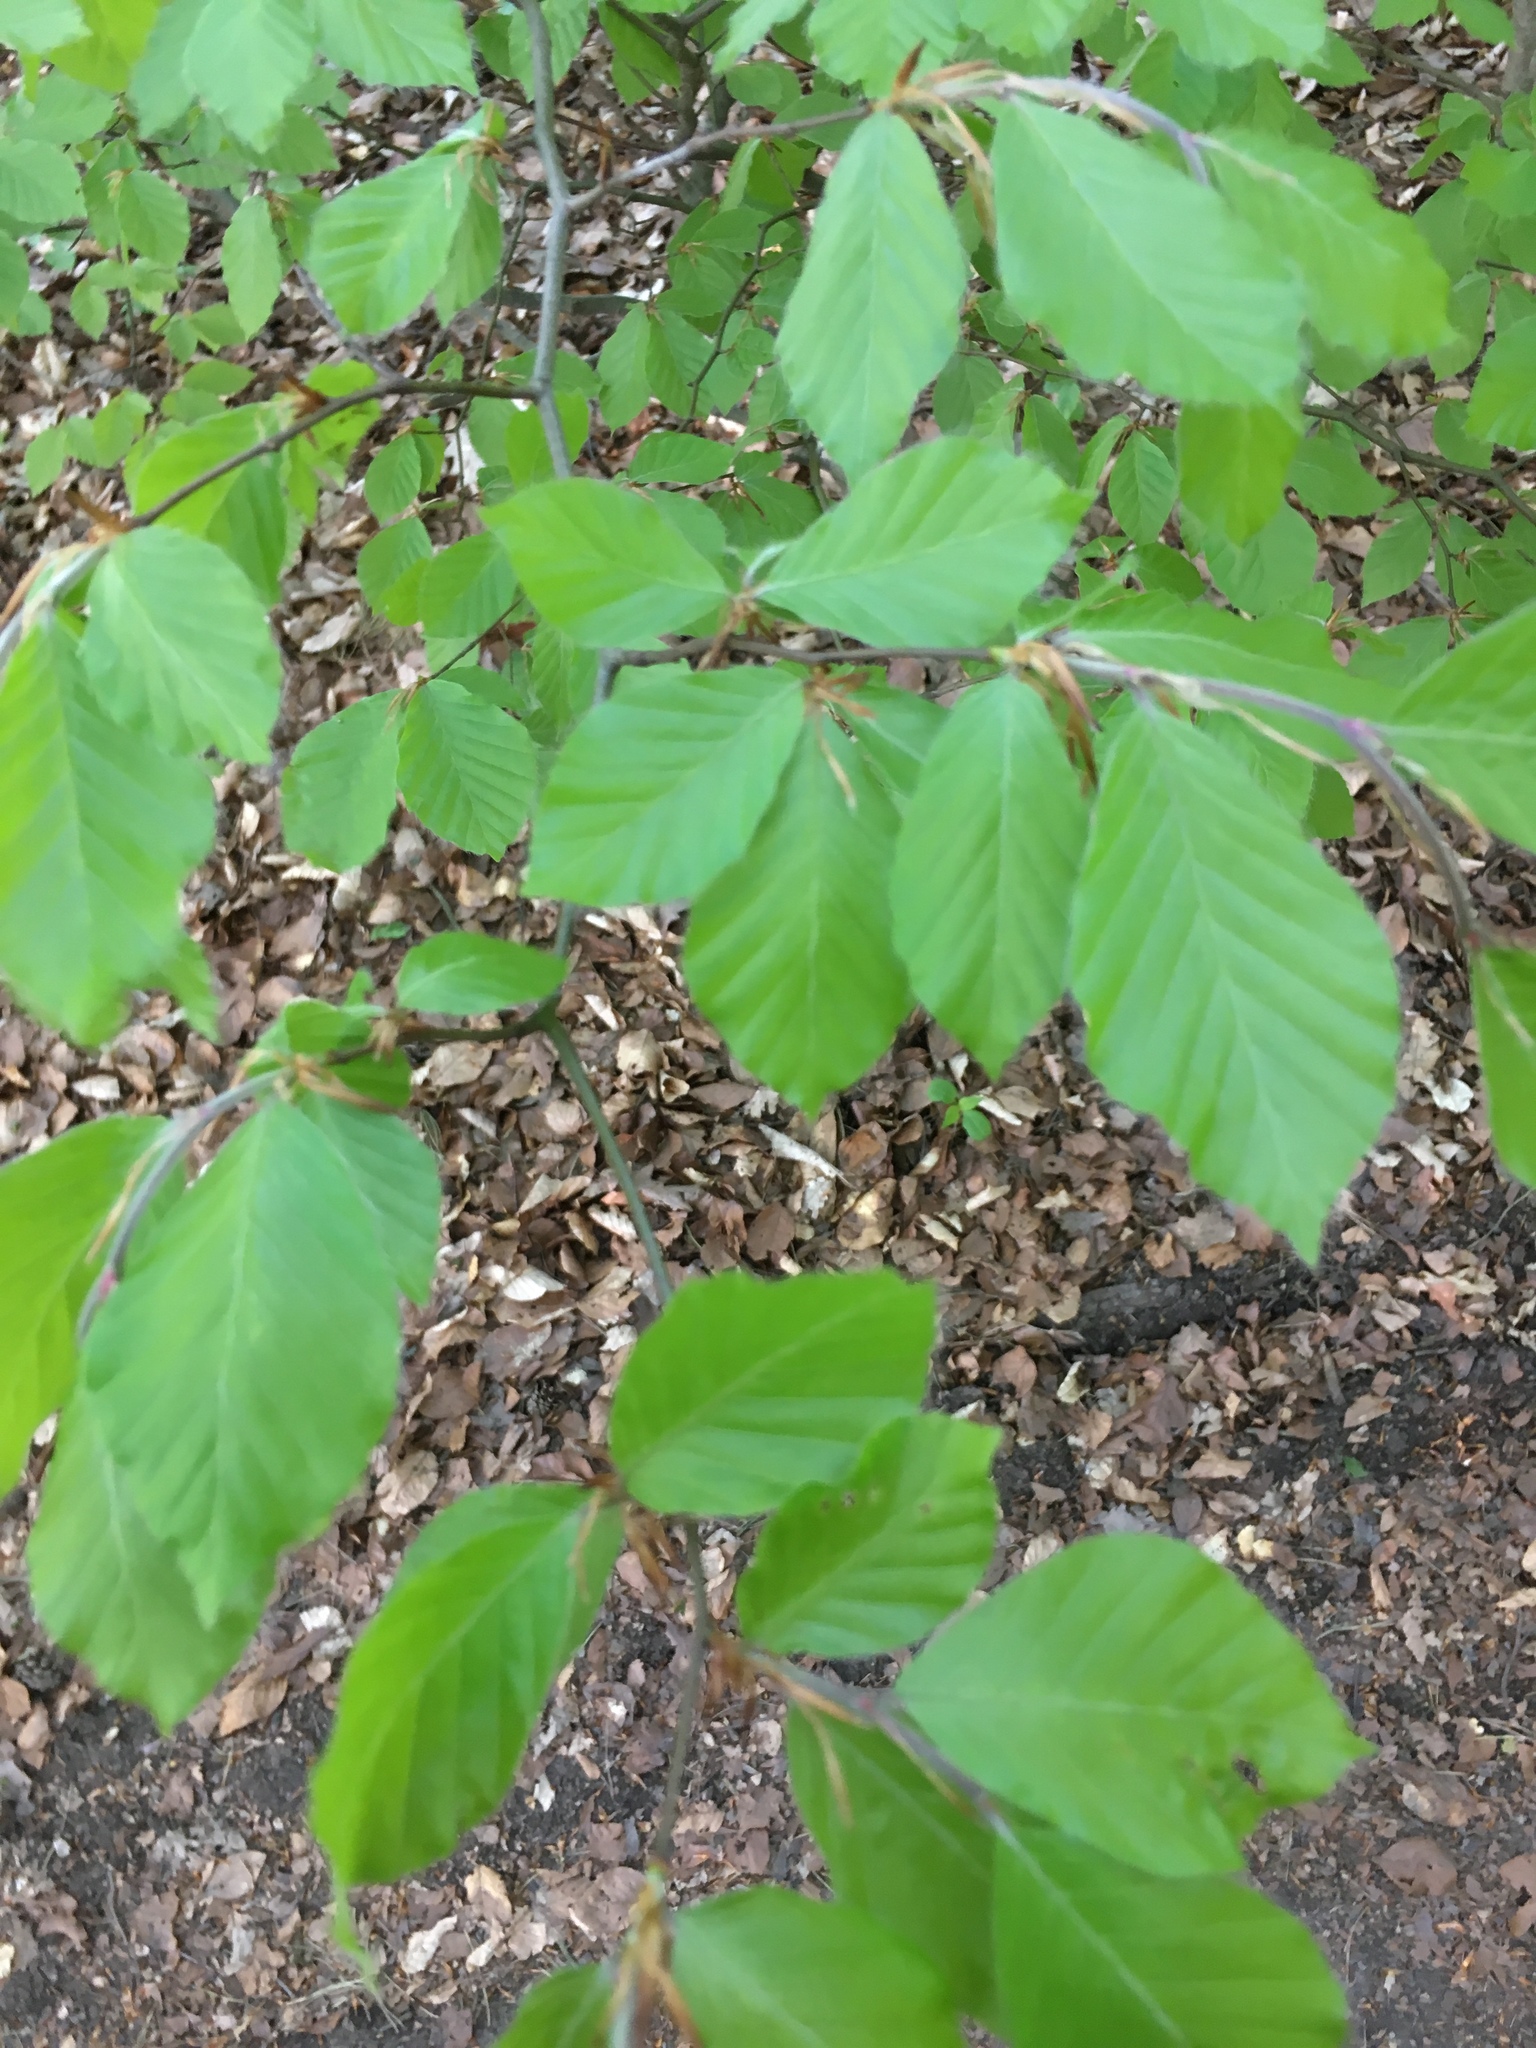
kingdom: Plantae
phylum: Tracheophyta
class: Magnoliopsida
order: Fagales
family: Fagaceae
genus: Fagus
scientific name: Fagus sylvatica
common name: Beech
